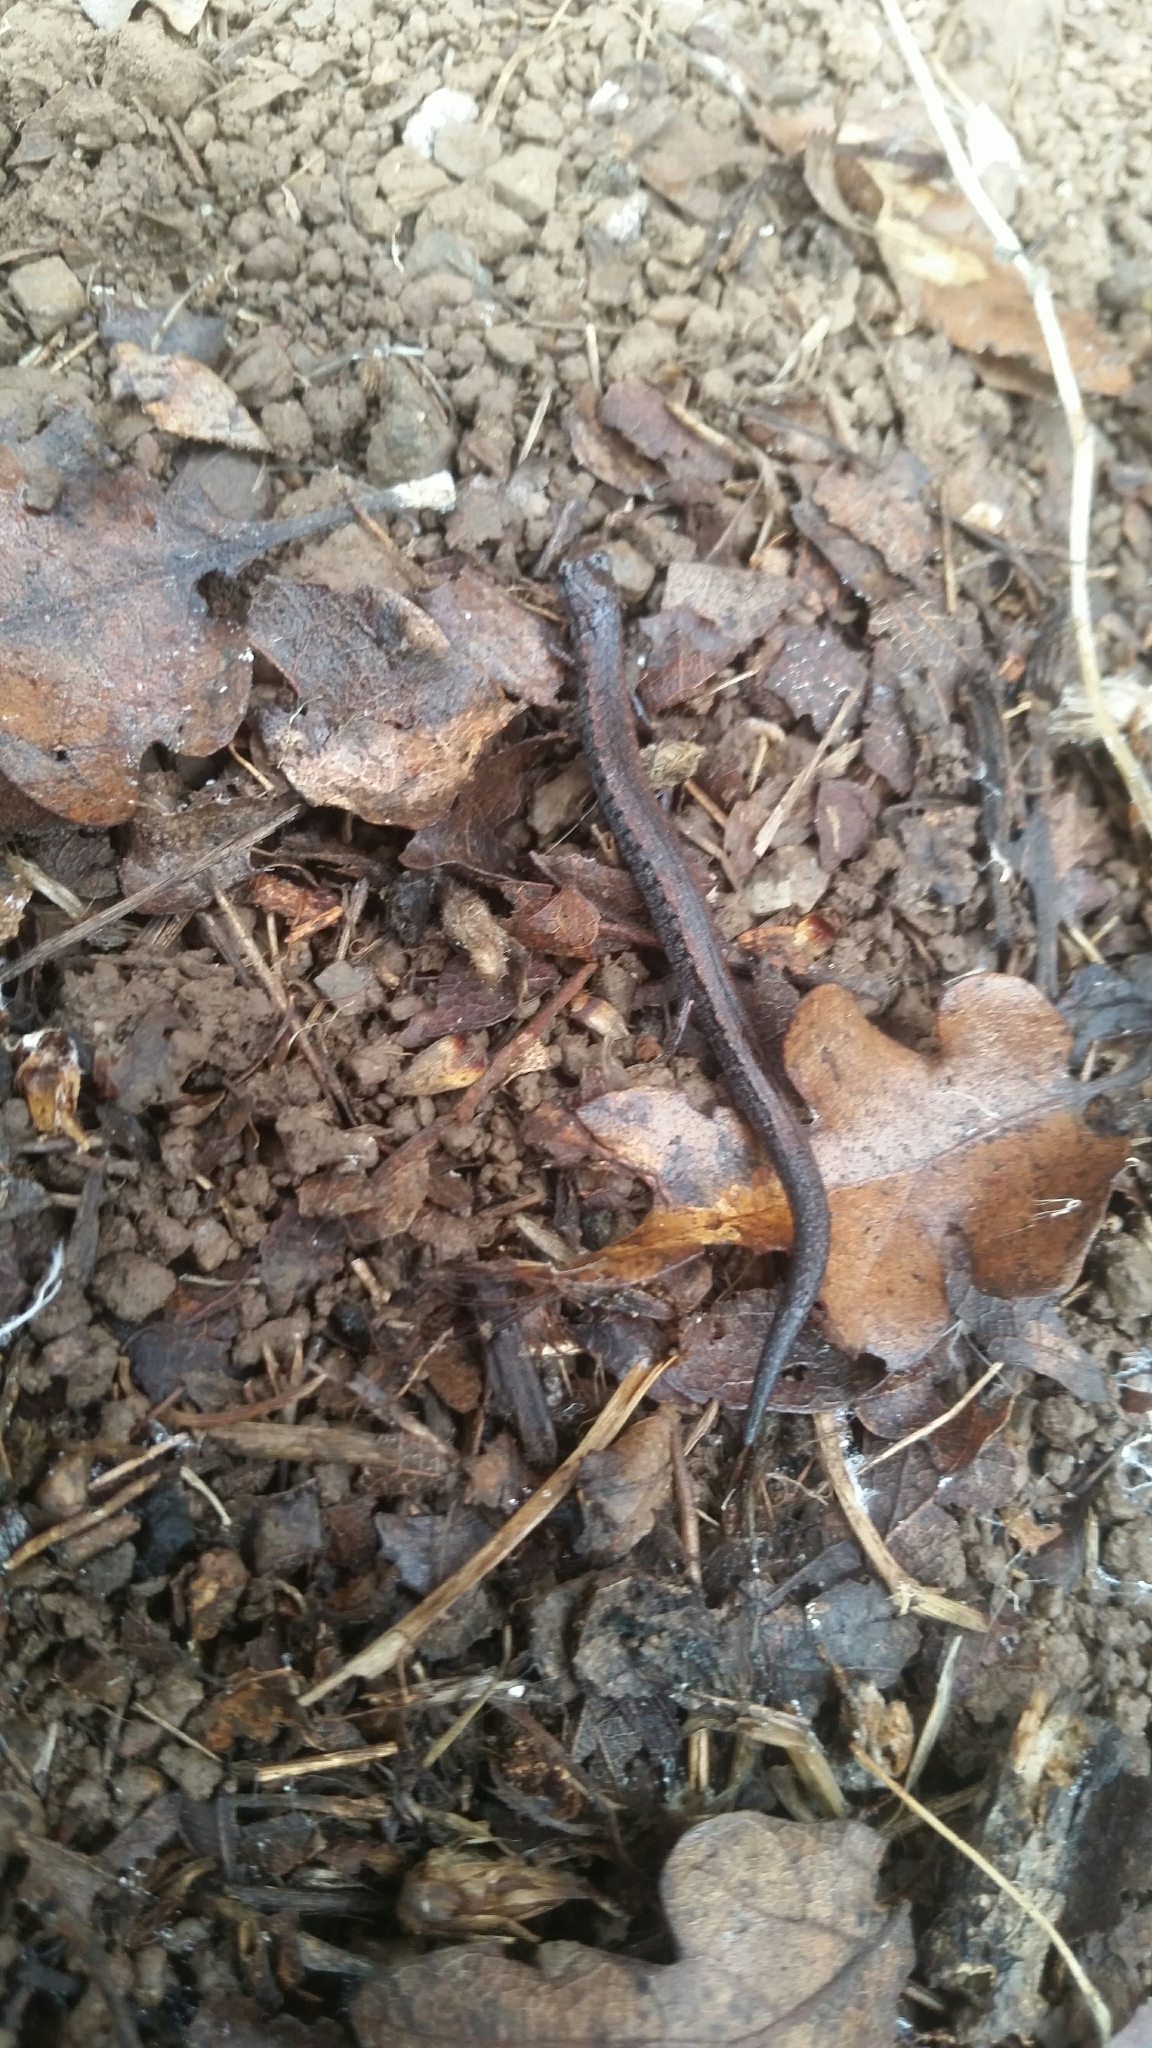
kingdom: Animalia
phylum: Chordata
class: Amphibia
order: Caudata
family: Plethodontidae
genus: Batrachoseps
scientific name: Batrachoseps attenuatus
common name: California slender salamander
